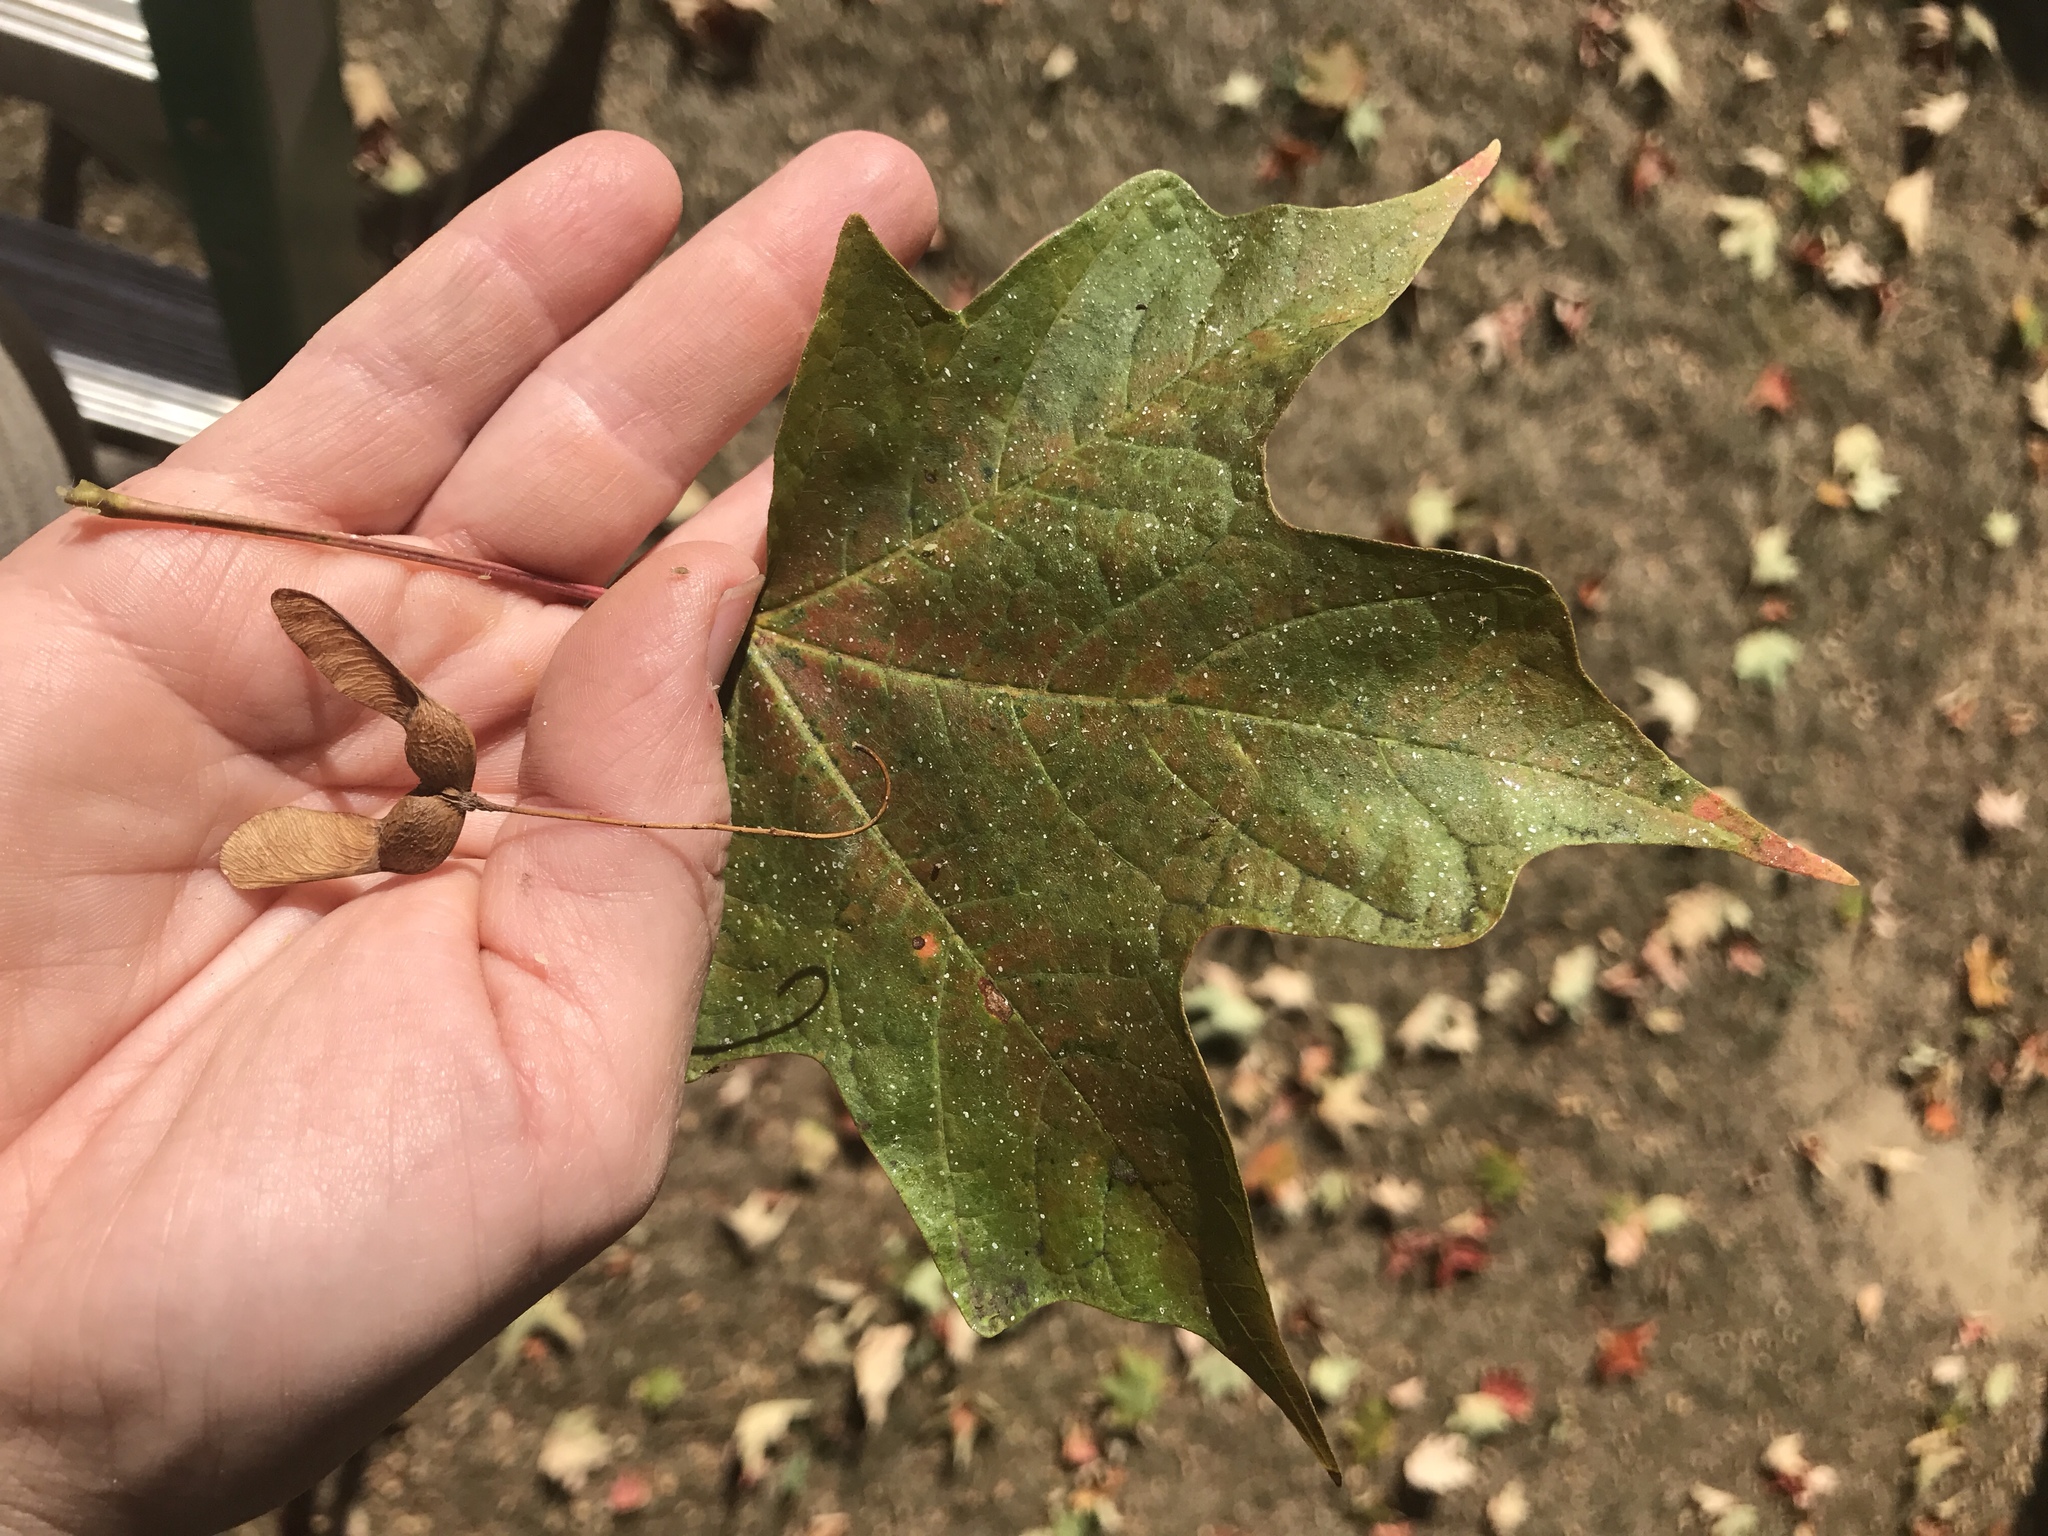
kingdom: Plantae
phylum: Tracheophyta
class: Magnoliopsida
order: Sapindales
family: Sapindaceae
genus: Acer
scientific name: Acer saccharum
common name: Sugar maple
